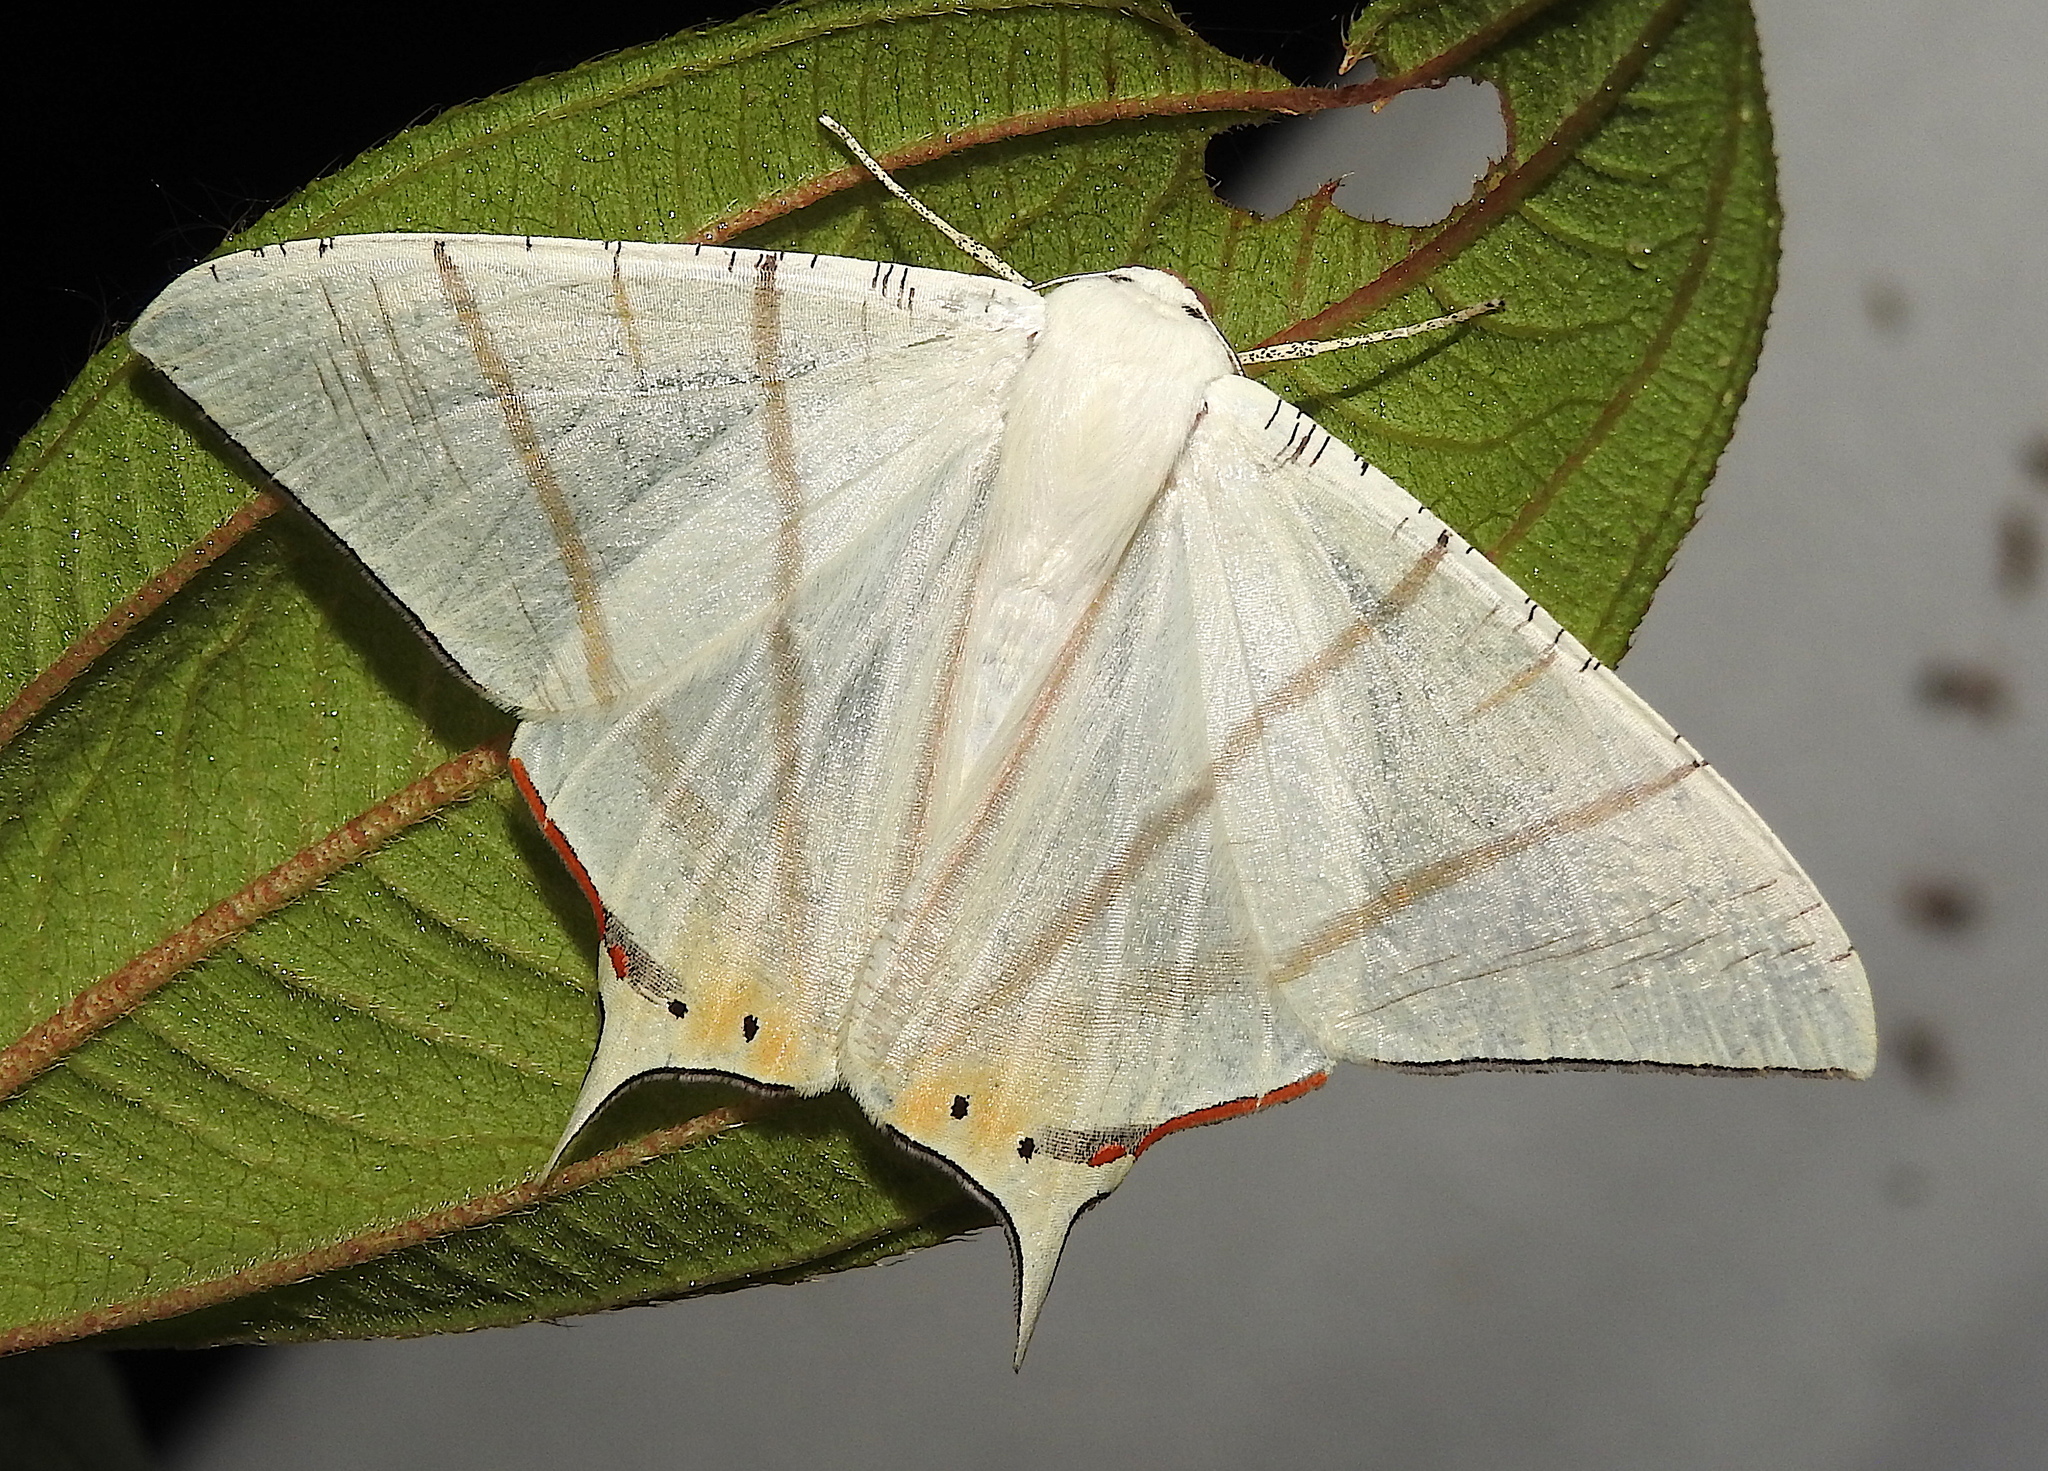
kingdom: Animalia
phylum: Arthropoda
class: Insecta
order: Lepidoptera
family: Geometridae
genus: Ourapteryx
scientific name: Ourapteryx marginata
